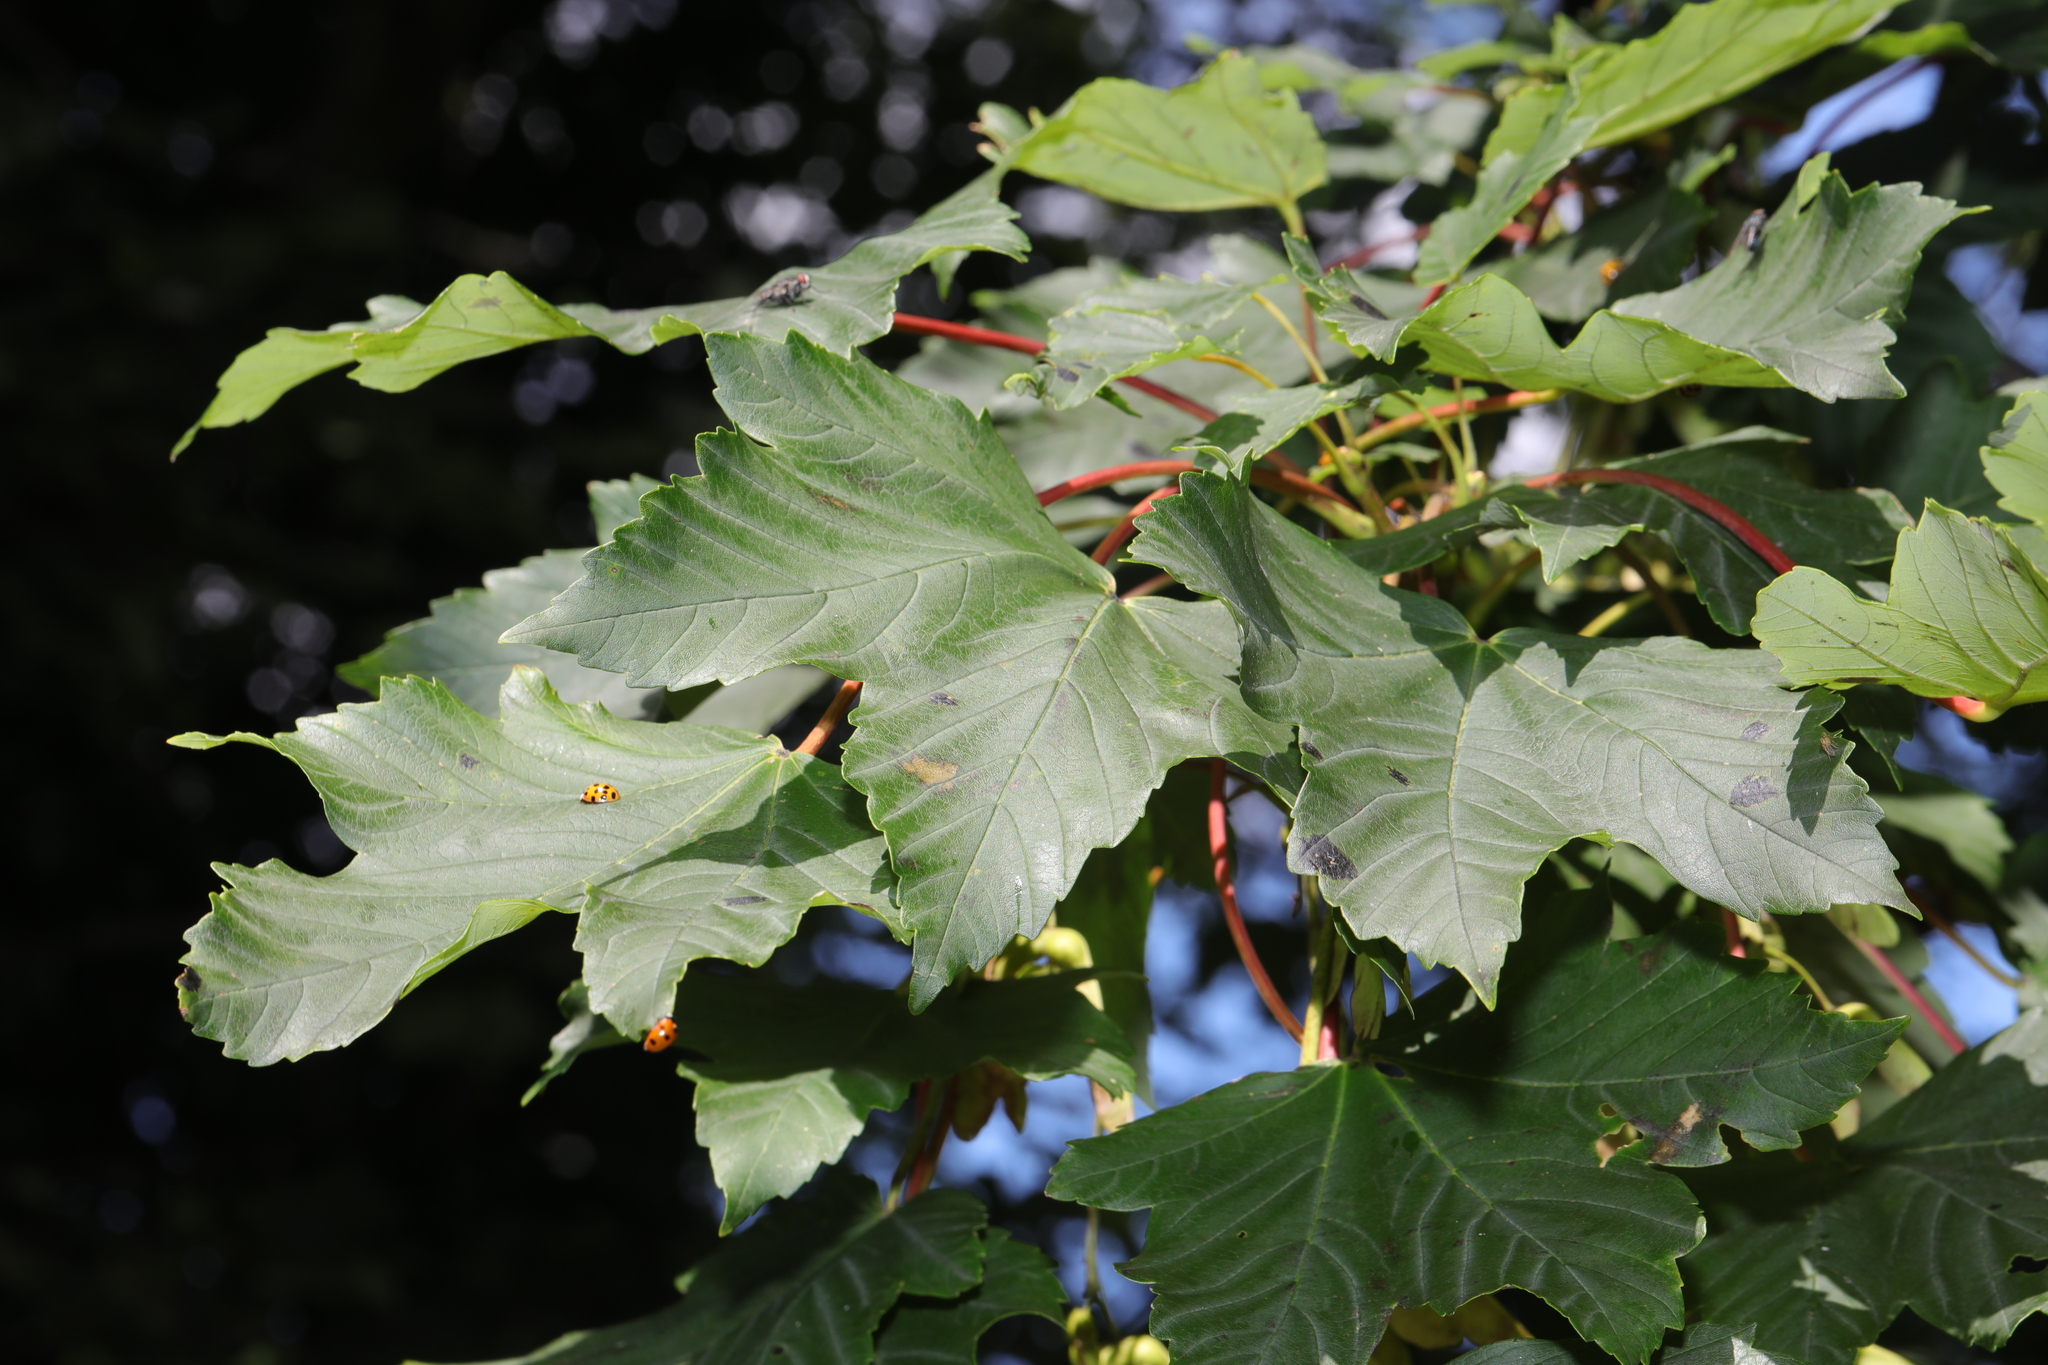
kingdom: Plantae
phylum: Tracheophyta
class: Magnoliopsida
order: Sapindales
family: Sapindaceae
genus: Acer
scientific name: Acer pseudoplatanus
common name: Sycamore
